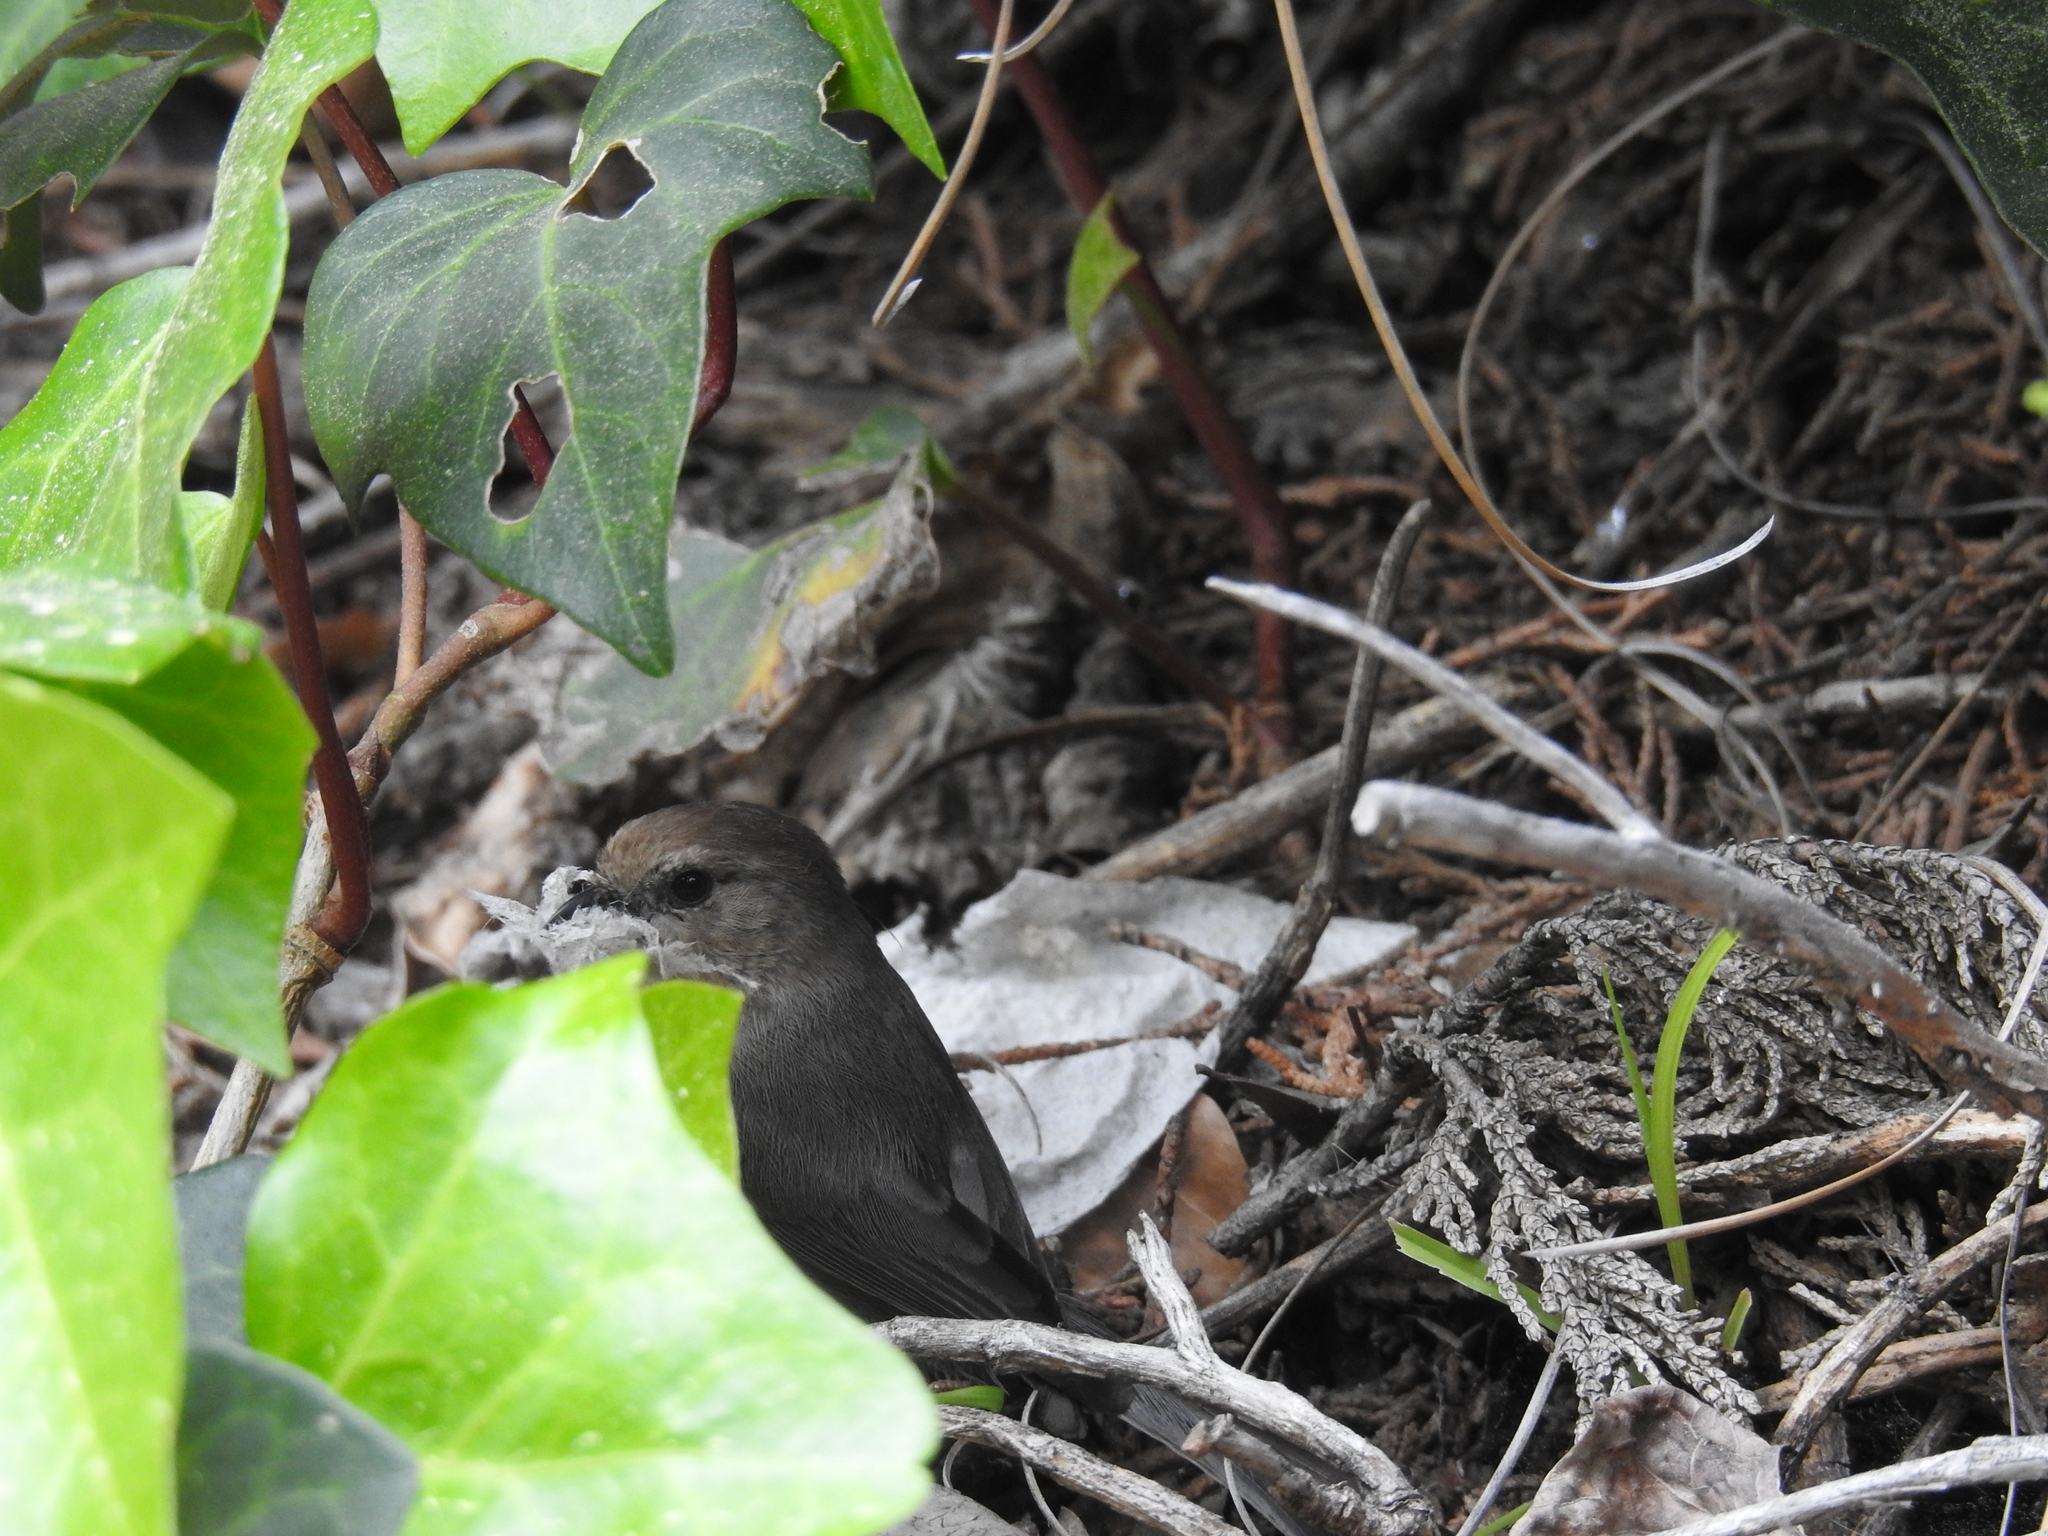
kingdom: Animalia
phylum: Chordata
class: Aves
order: Passeriformes
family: Aegithalidae
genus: Psaltriparus
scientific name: Psaltriparus minimus
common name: American bushtit
